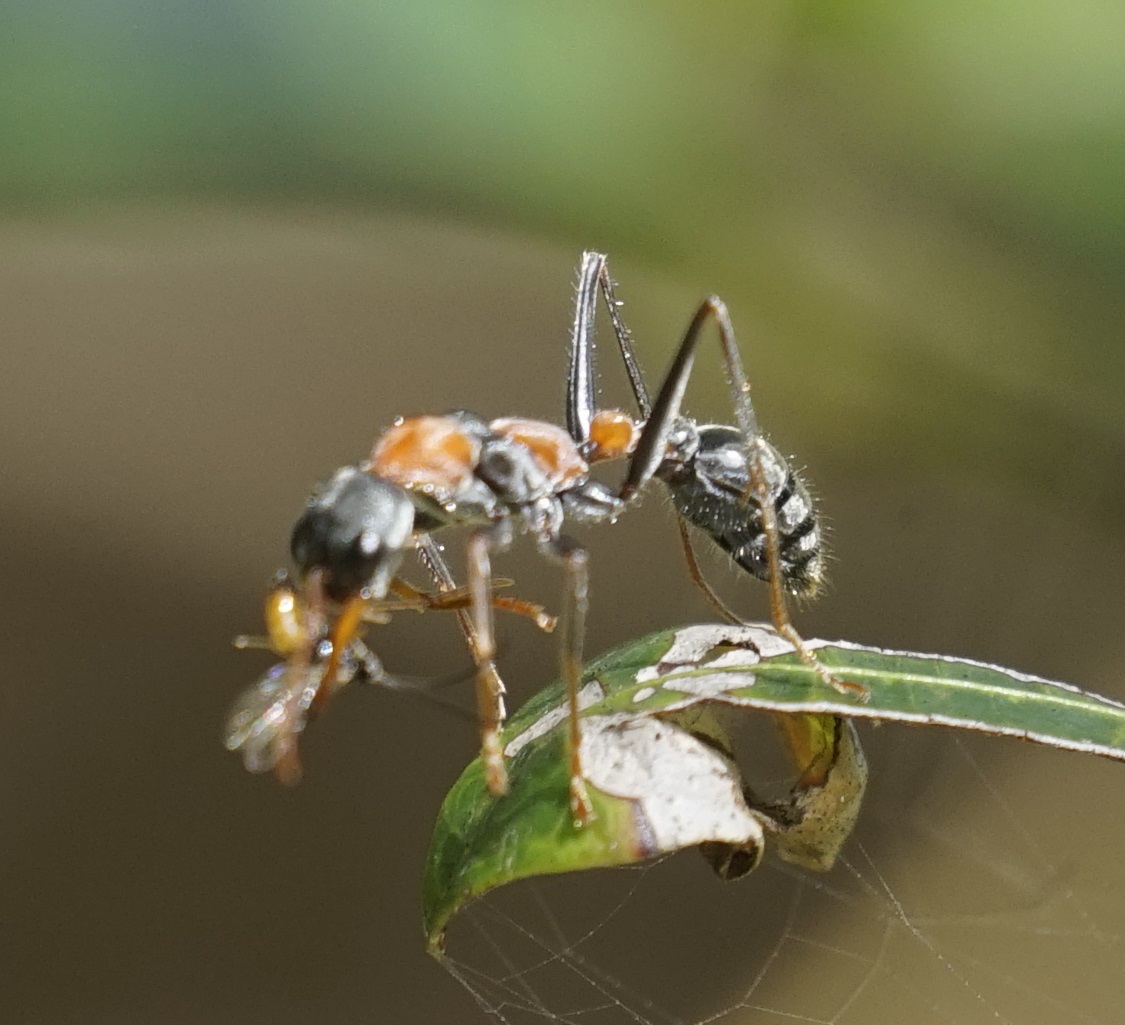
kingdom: Animalia
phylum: Arthropoda
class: Insecta
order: Hymenoptera
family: Formicidae
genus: Myrmecia
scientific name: Myrmecia nigrocincta
